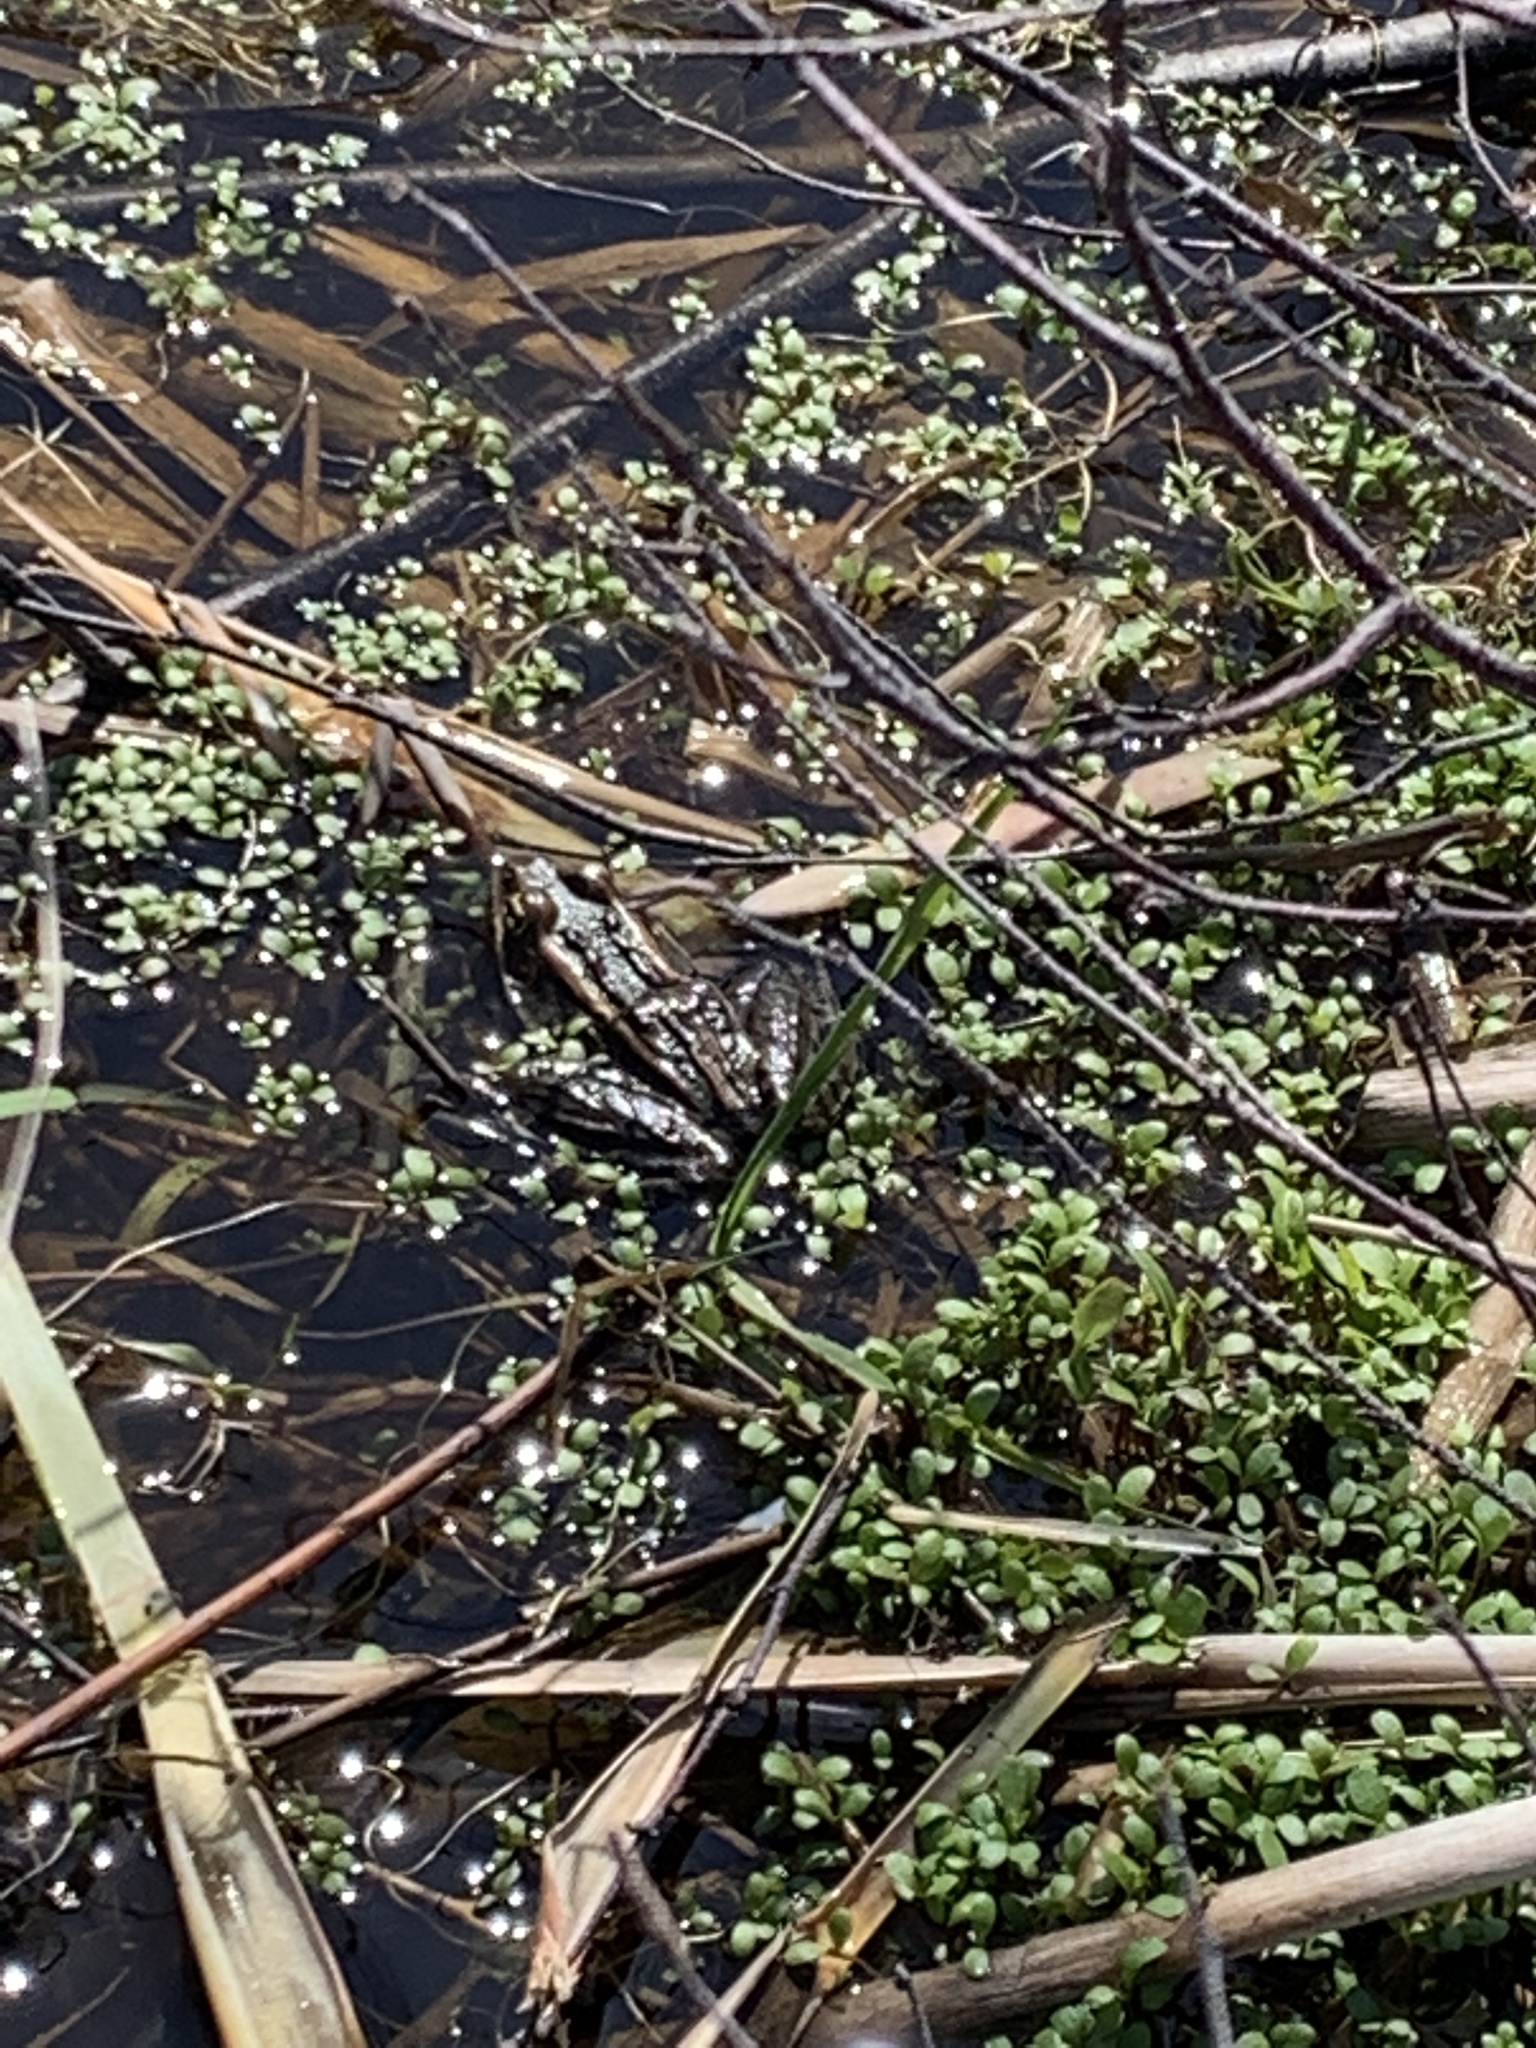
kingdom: Animalia
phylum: Chordata
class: Amphibia
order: Anura
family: Ranidae
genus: Lithobates
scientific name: Lithobates pipiens
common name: Northern leopard frog
